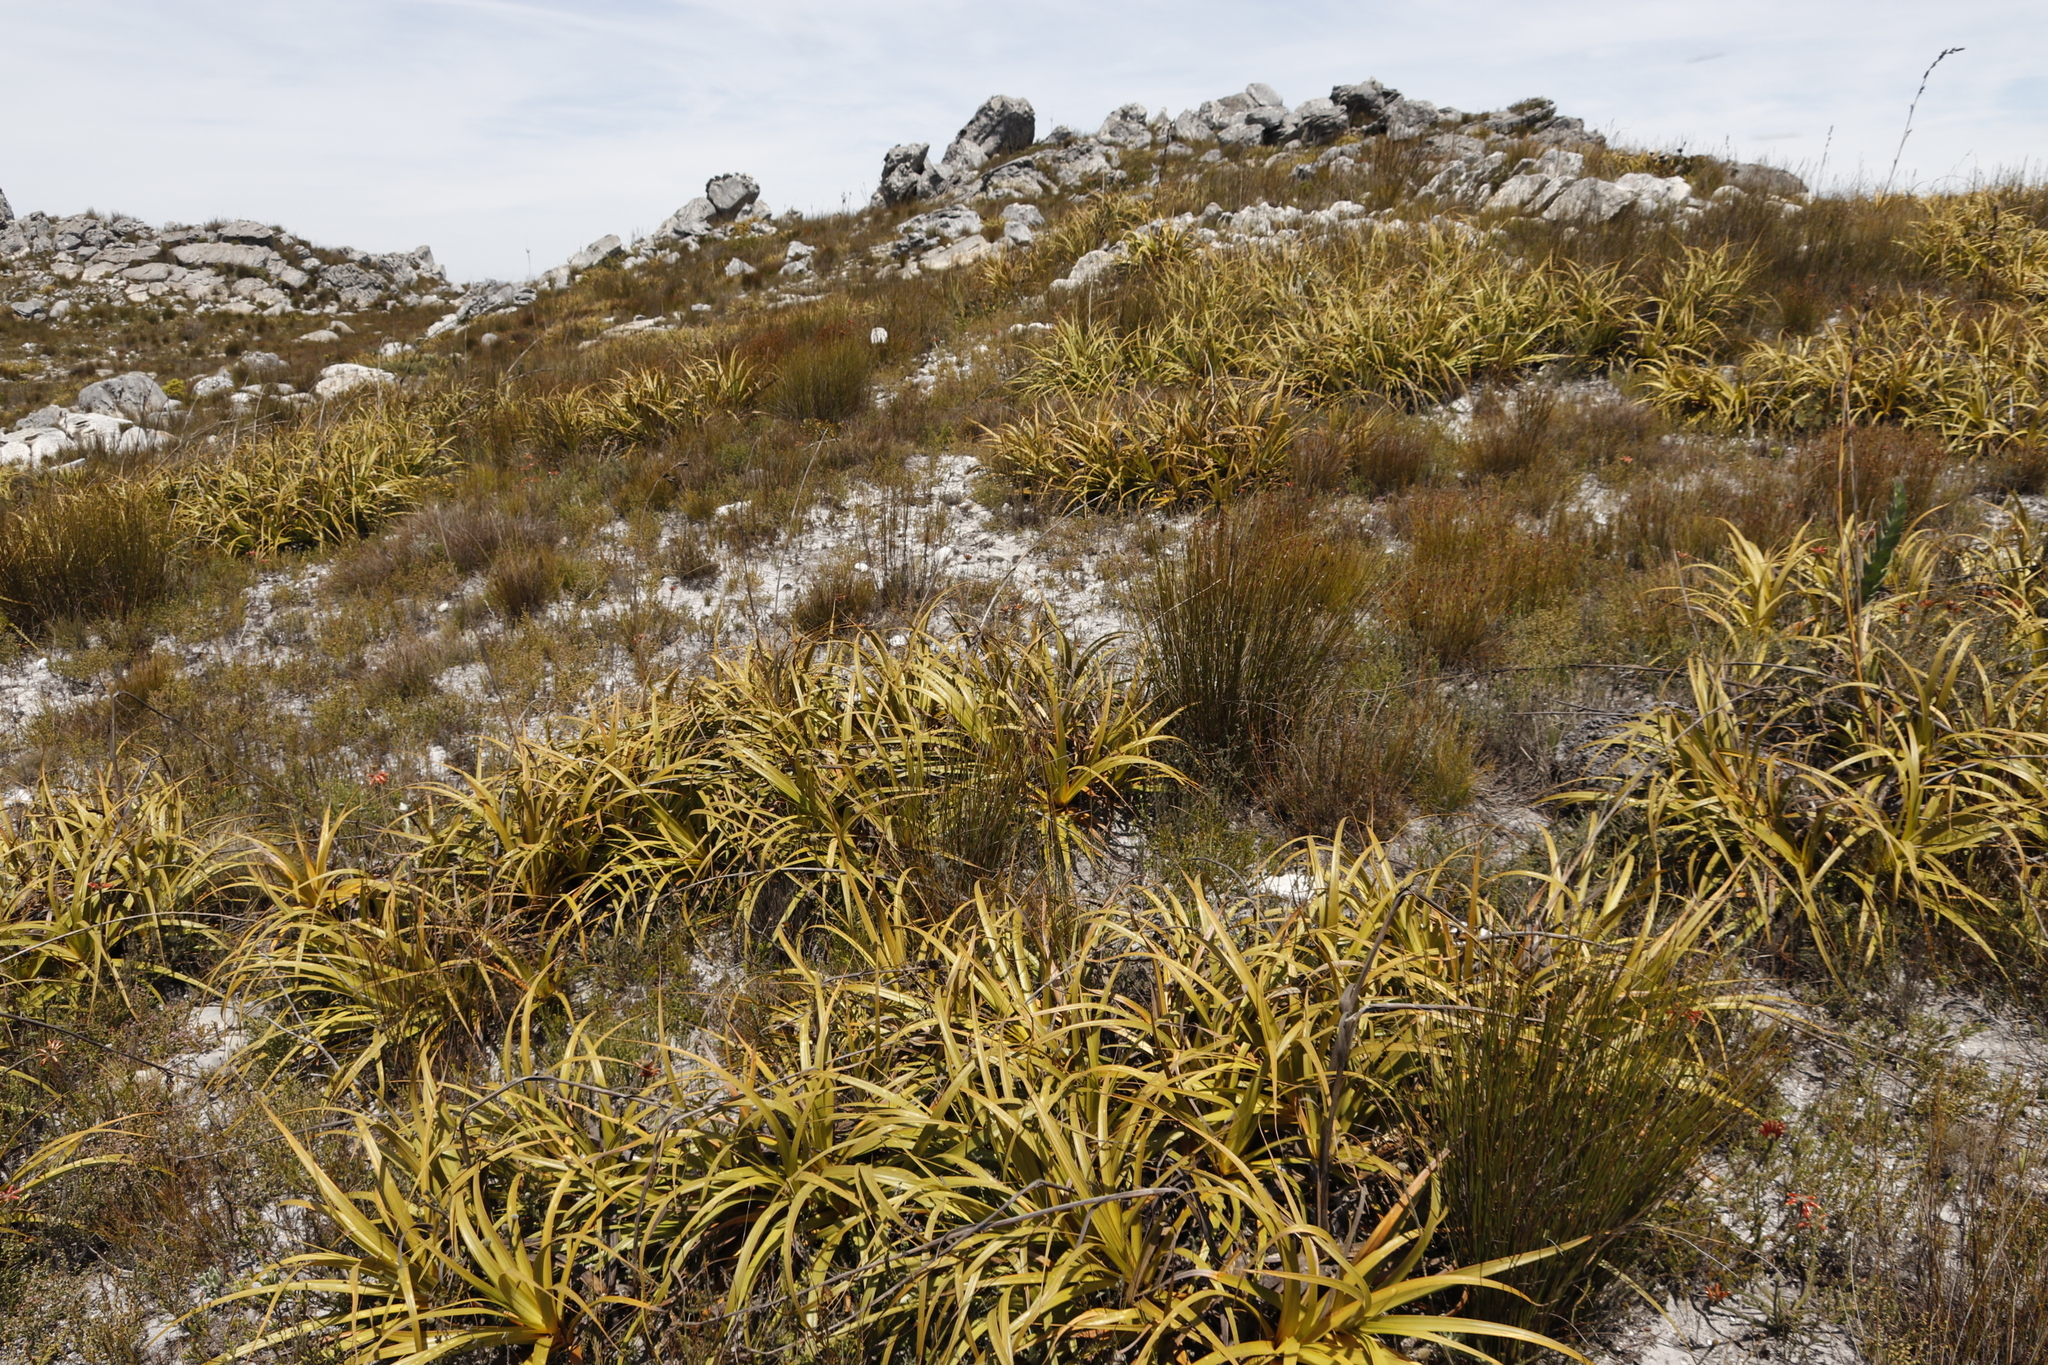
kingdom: Plantae
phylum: Tracheophyta
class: Liliopsida
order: Poales
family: Cyperaceae
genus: Tetraria
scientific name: Tetraria thermalis
